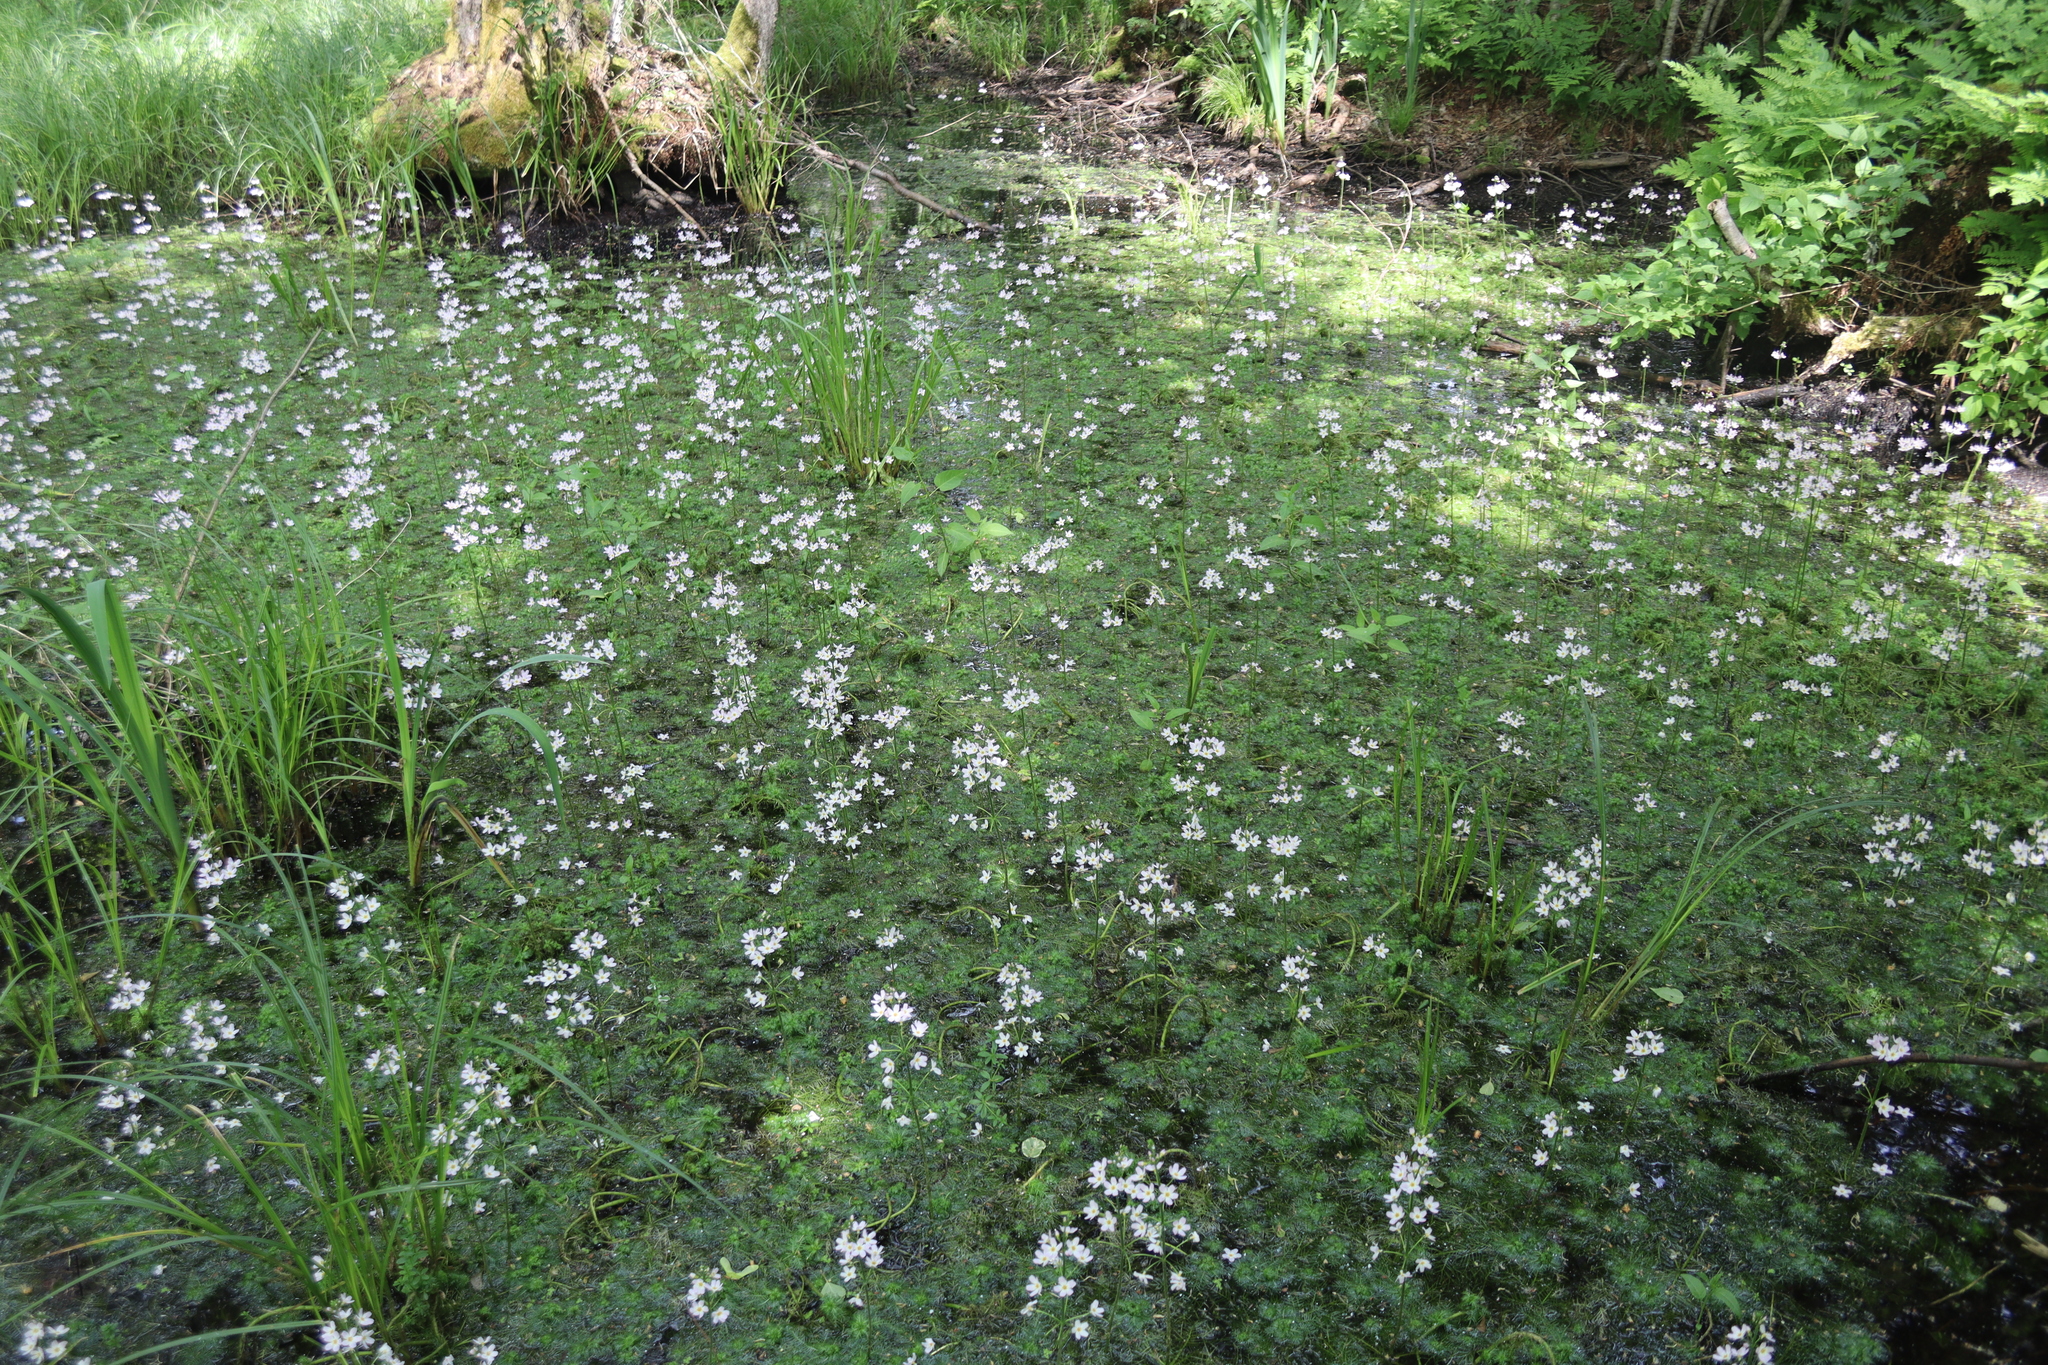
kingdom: Plantae
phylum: Tracheophyta
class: Magnoliopsida
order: Ericales
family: Primulaceae
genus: Hottonia
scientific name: Hottonia palustris
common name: Water-violet
